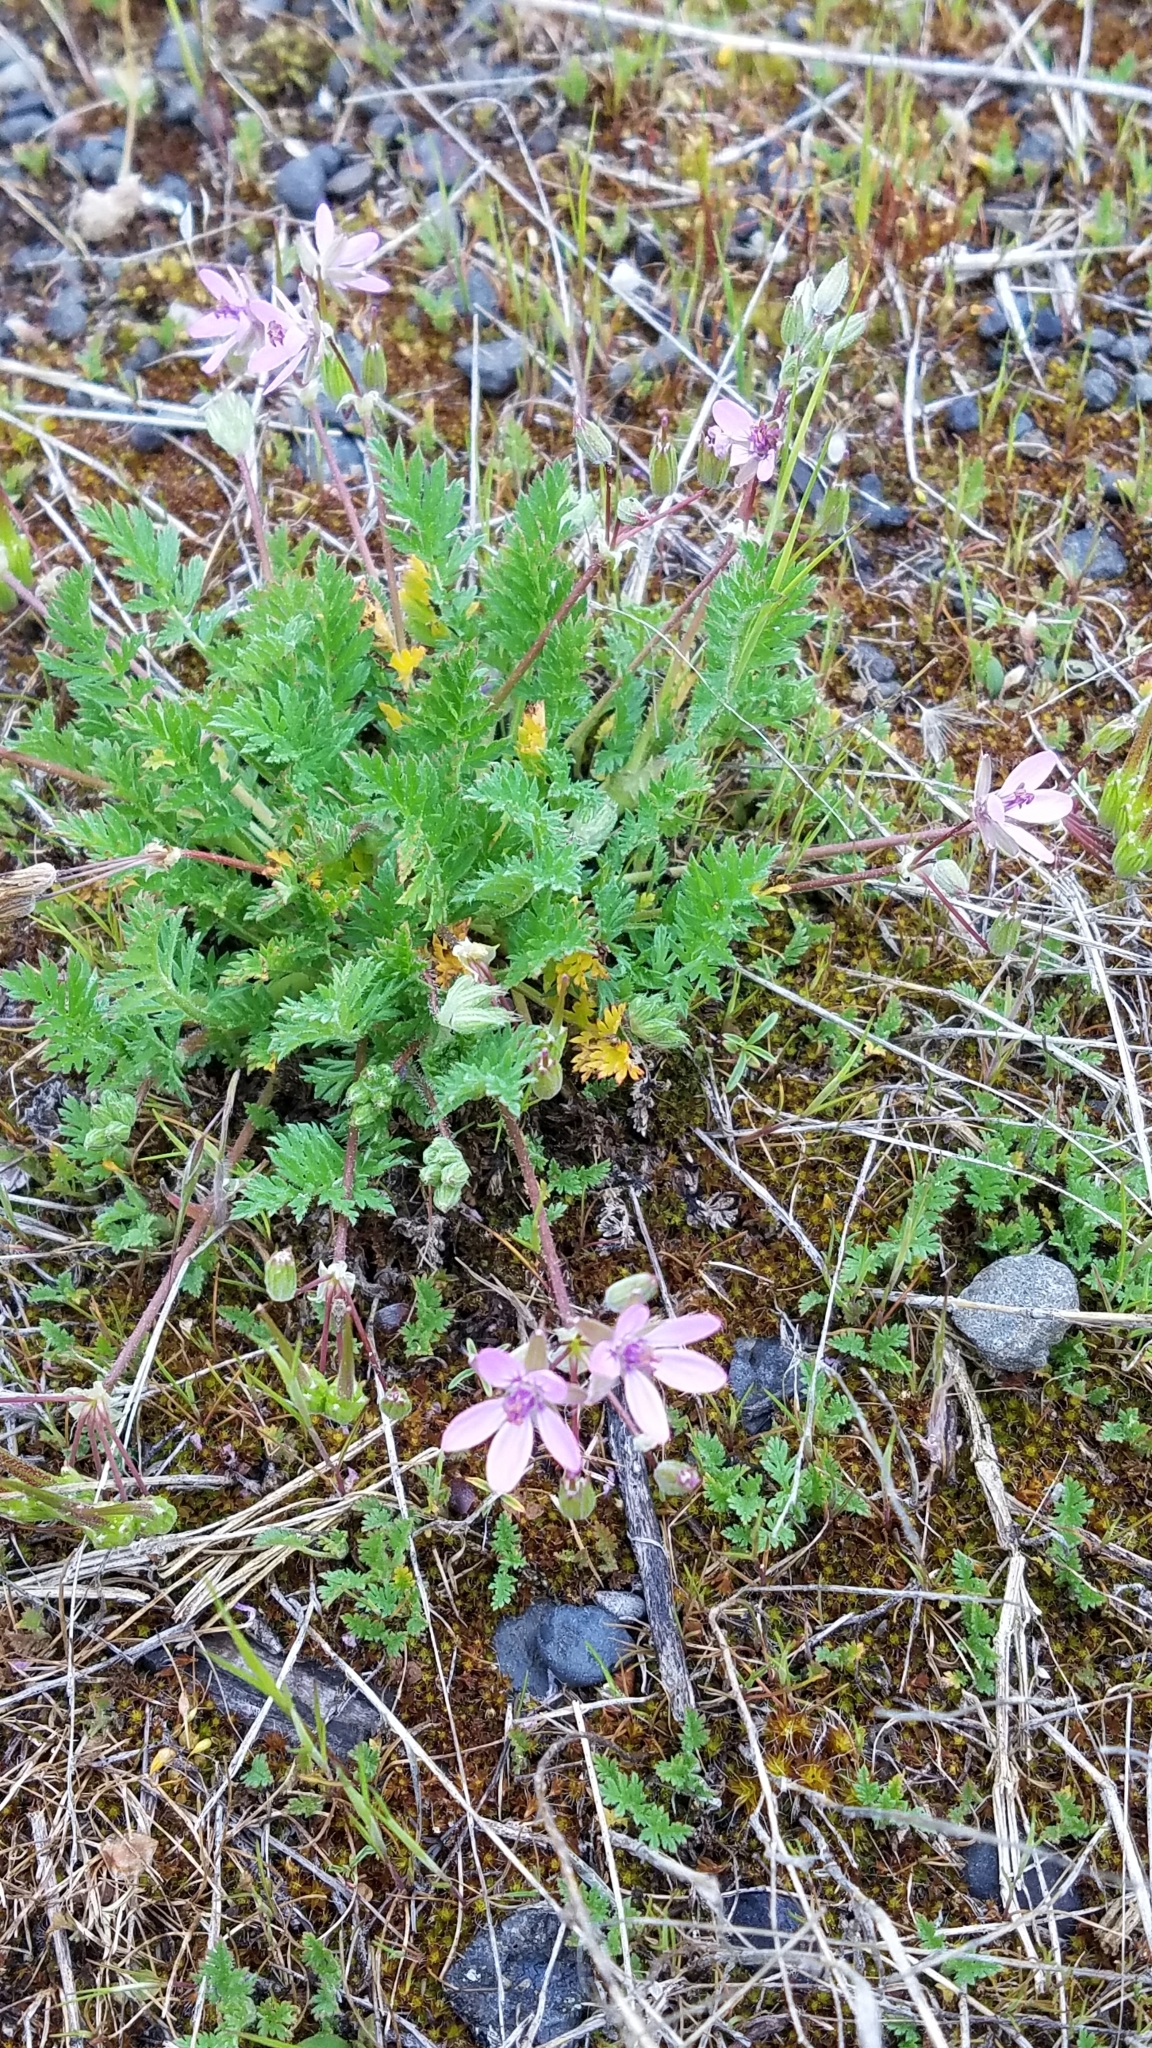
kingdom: Plantae
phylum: Tracheophyta
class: Magnoliopsida
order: Geraniales
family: Geraniaceae
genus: Erodium
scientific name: Erodium cicutarium
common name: Common stork's-bill
